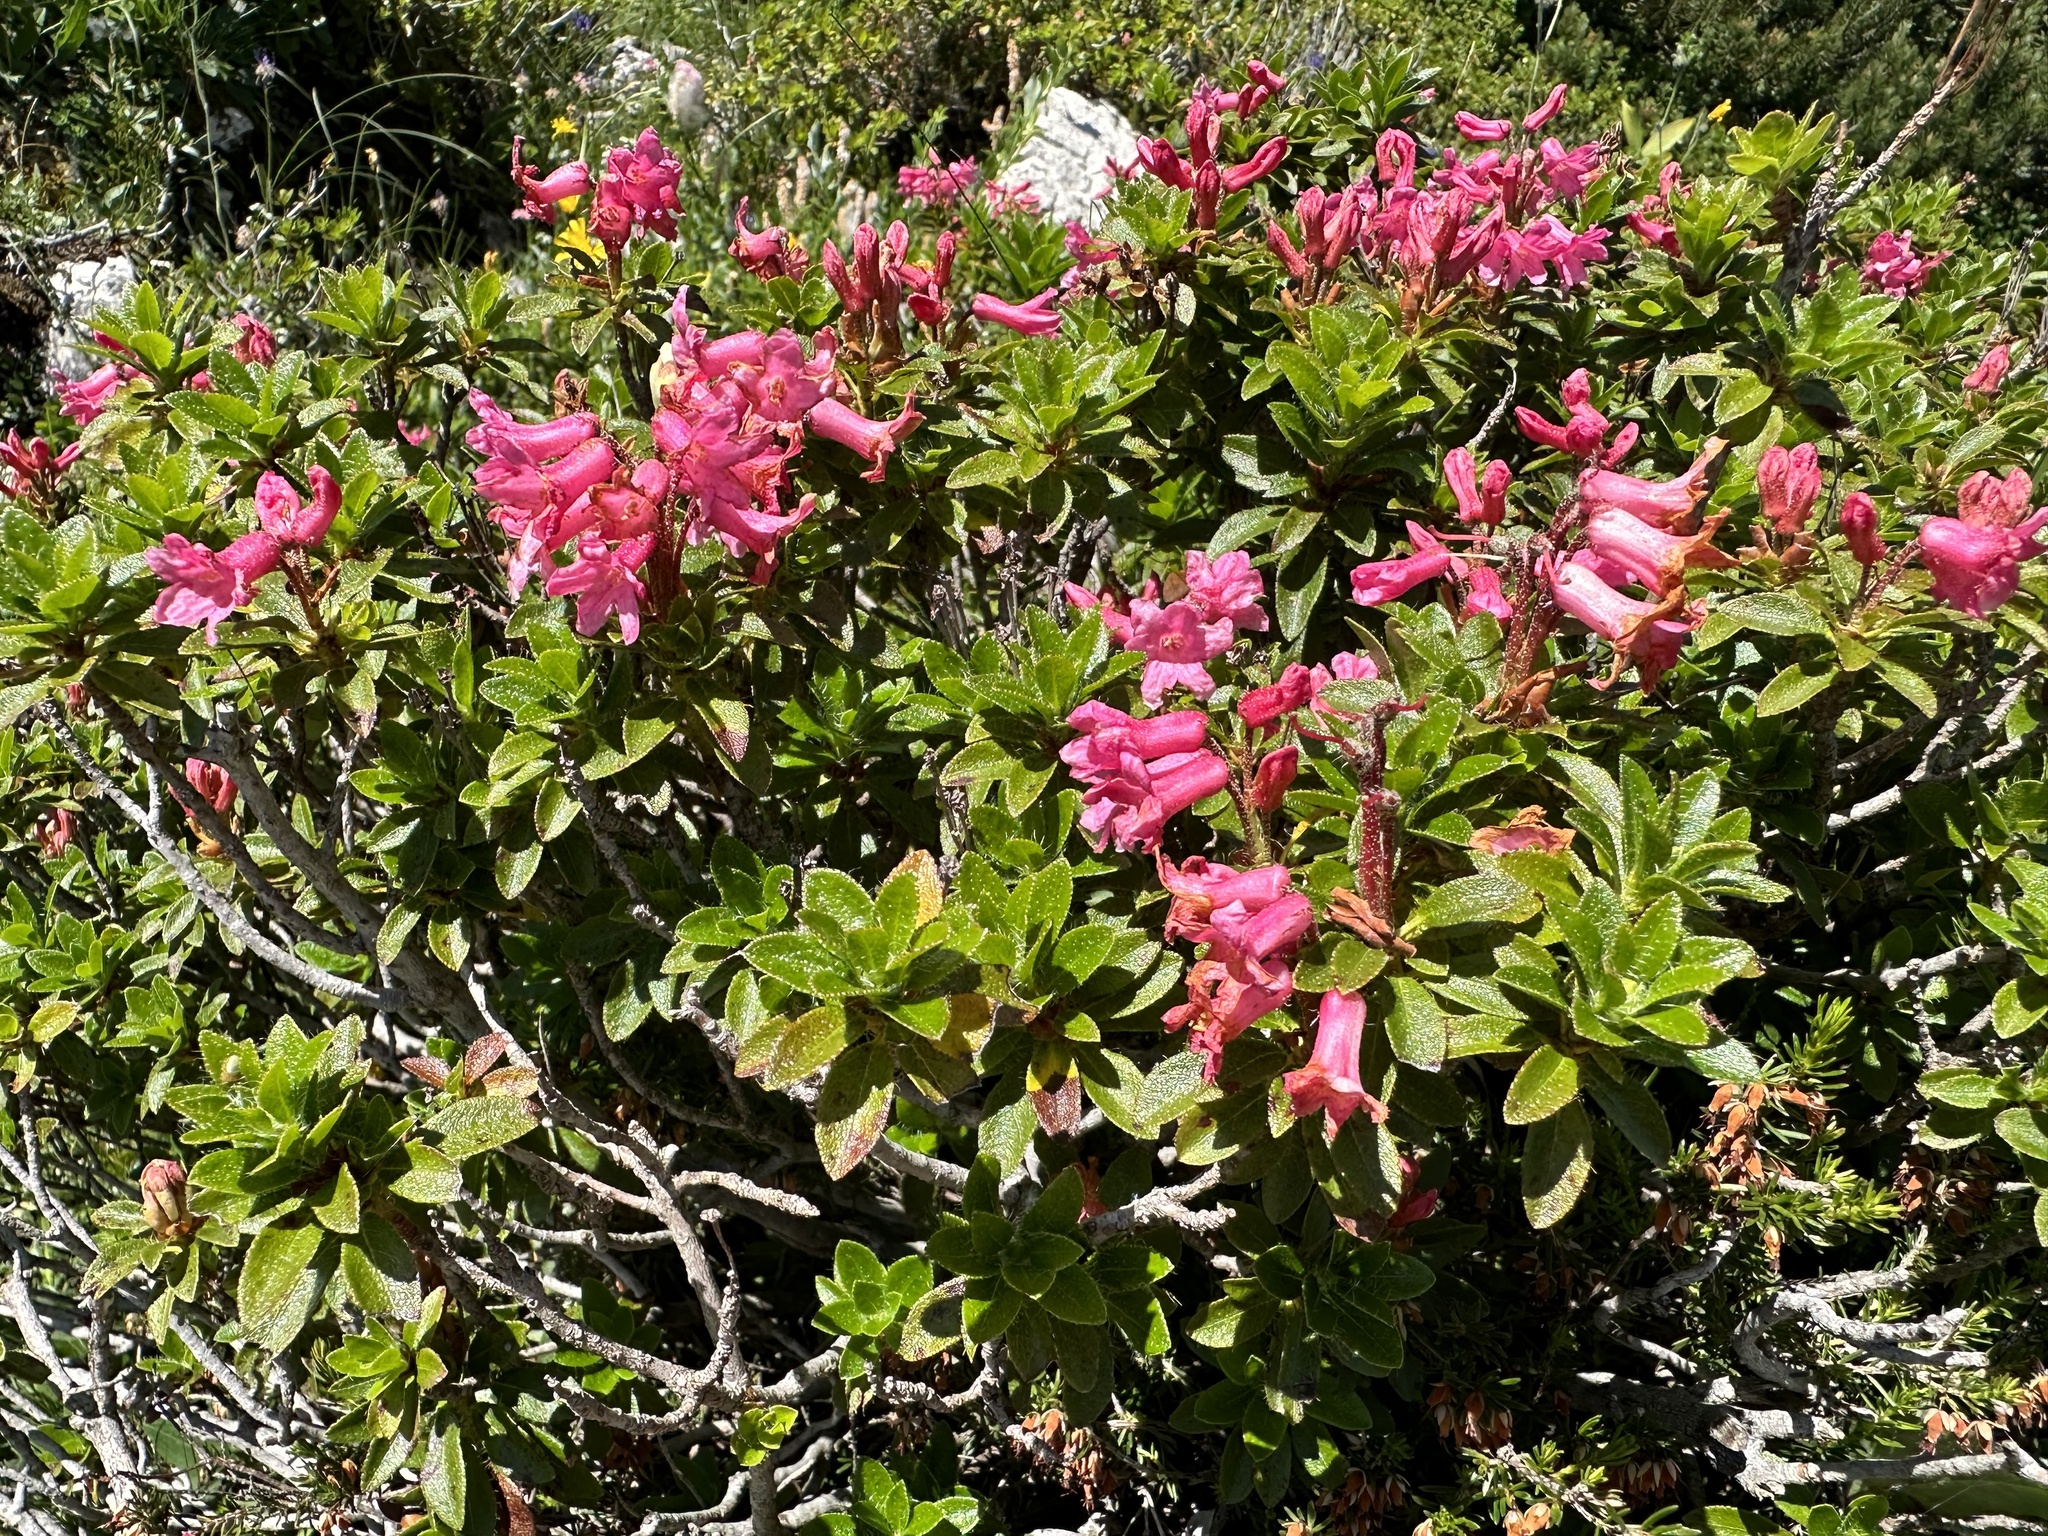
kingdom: Plantae
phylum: Tracheophyta
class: Magnoliopsida
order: Ericales
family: Ericaceae
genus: Rhododendron
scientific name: Rhododendron hirsutum
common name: Hairy alpenrose
